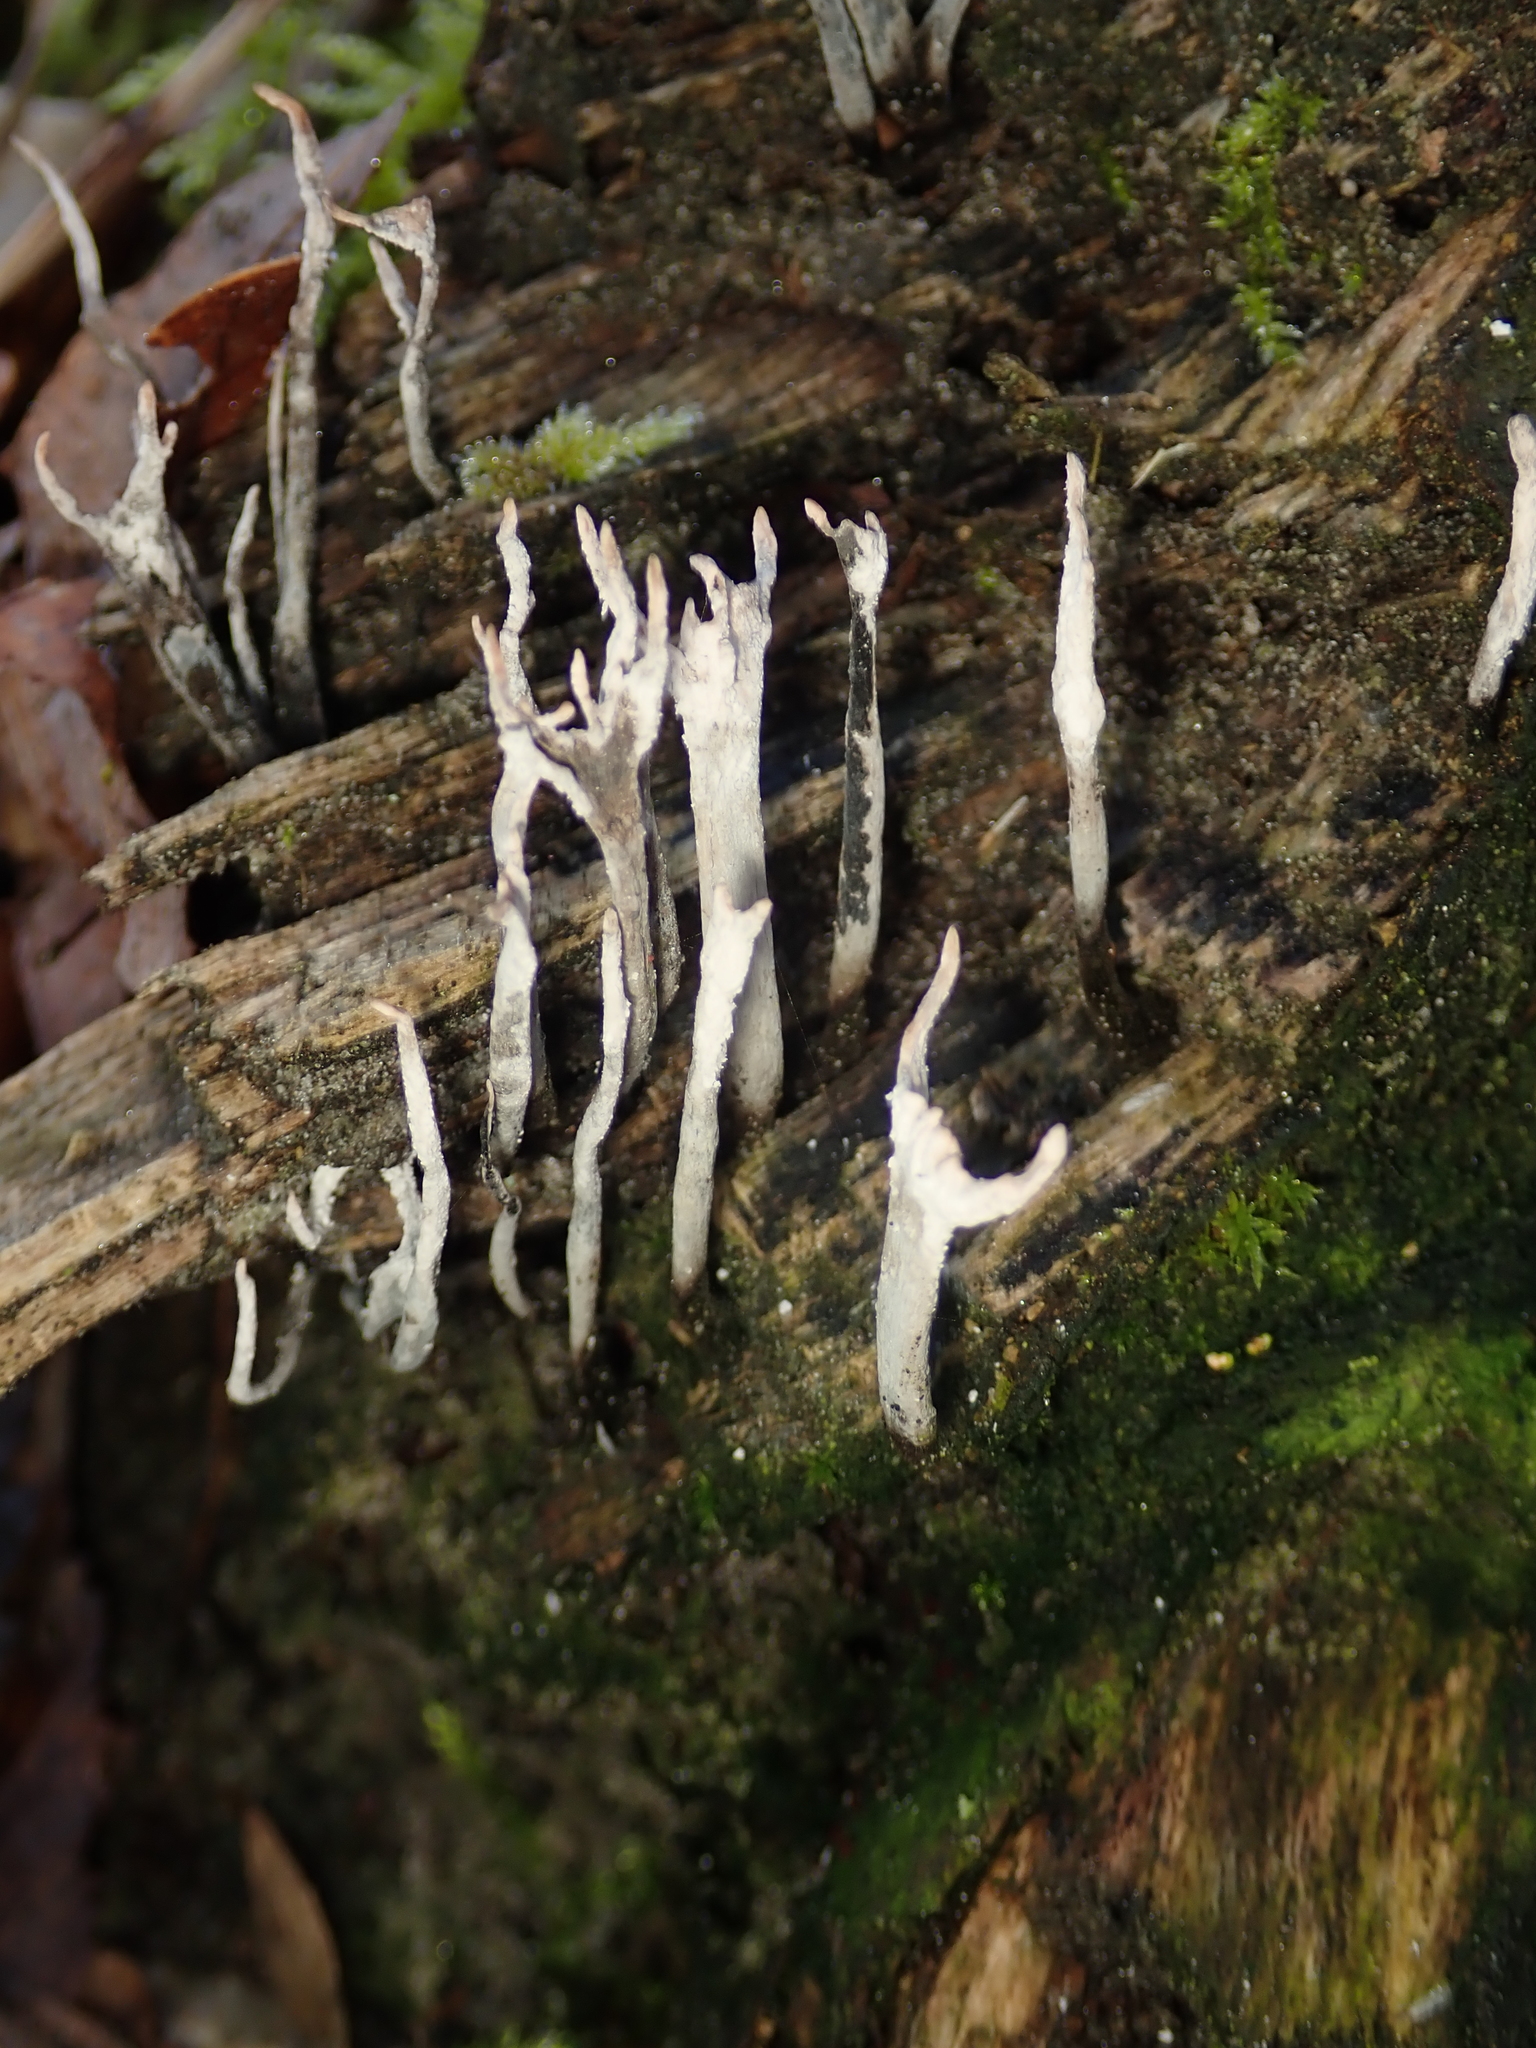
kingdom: Fungi
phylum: Ascomycota
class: Sordariomycetes
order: Xylariales
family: Xylariaceae
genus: Xylaria
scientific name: Xylaria hypoxylon
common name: Candle-snuff fungus
